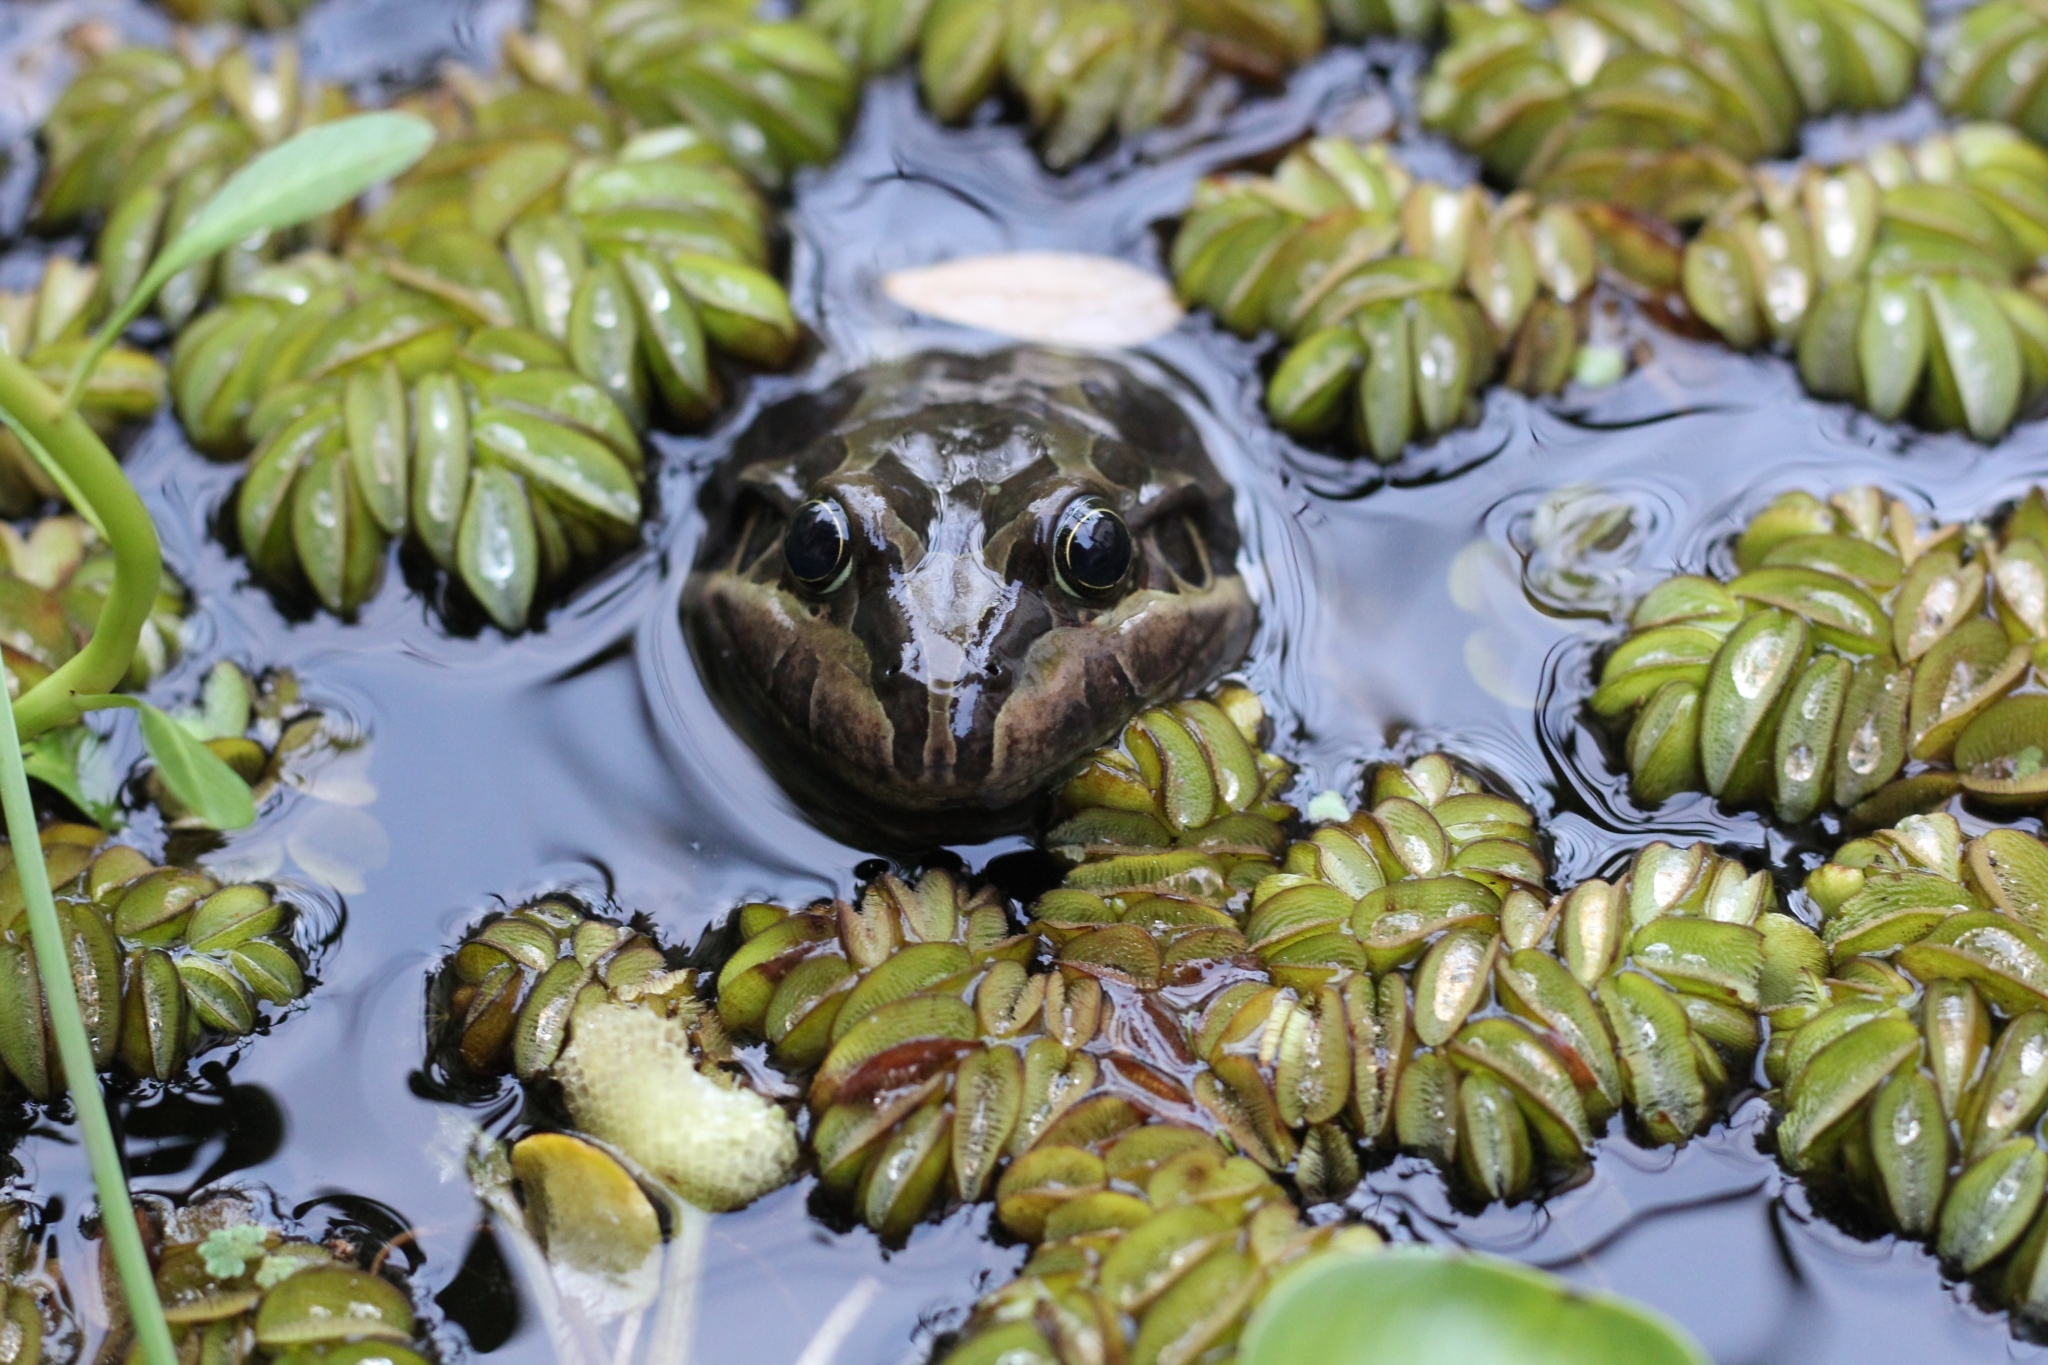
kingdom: Animalia
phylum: Chordata
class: Amphibia
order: Anura
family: Leptodactylidae
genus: Leptodactylus
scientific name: Leptodactylus luctator
